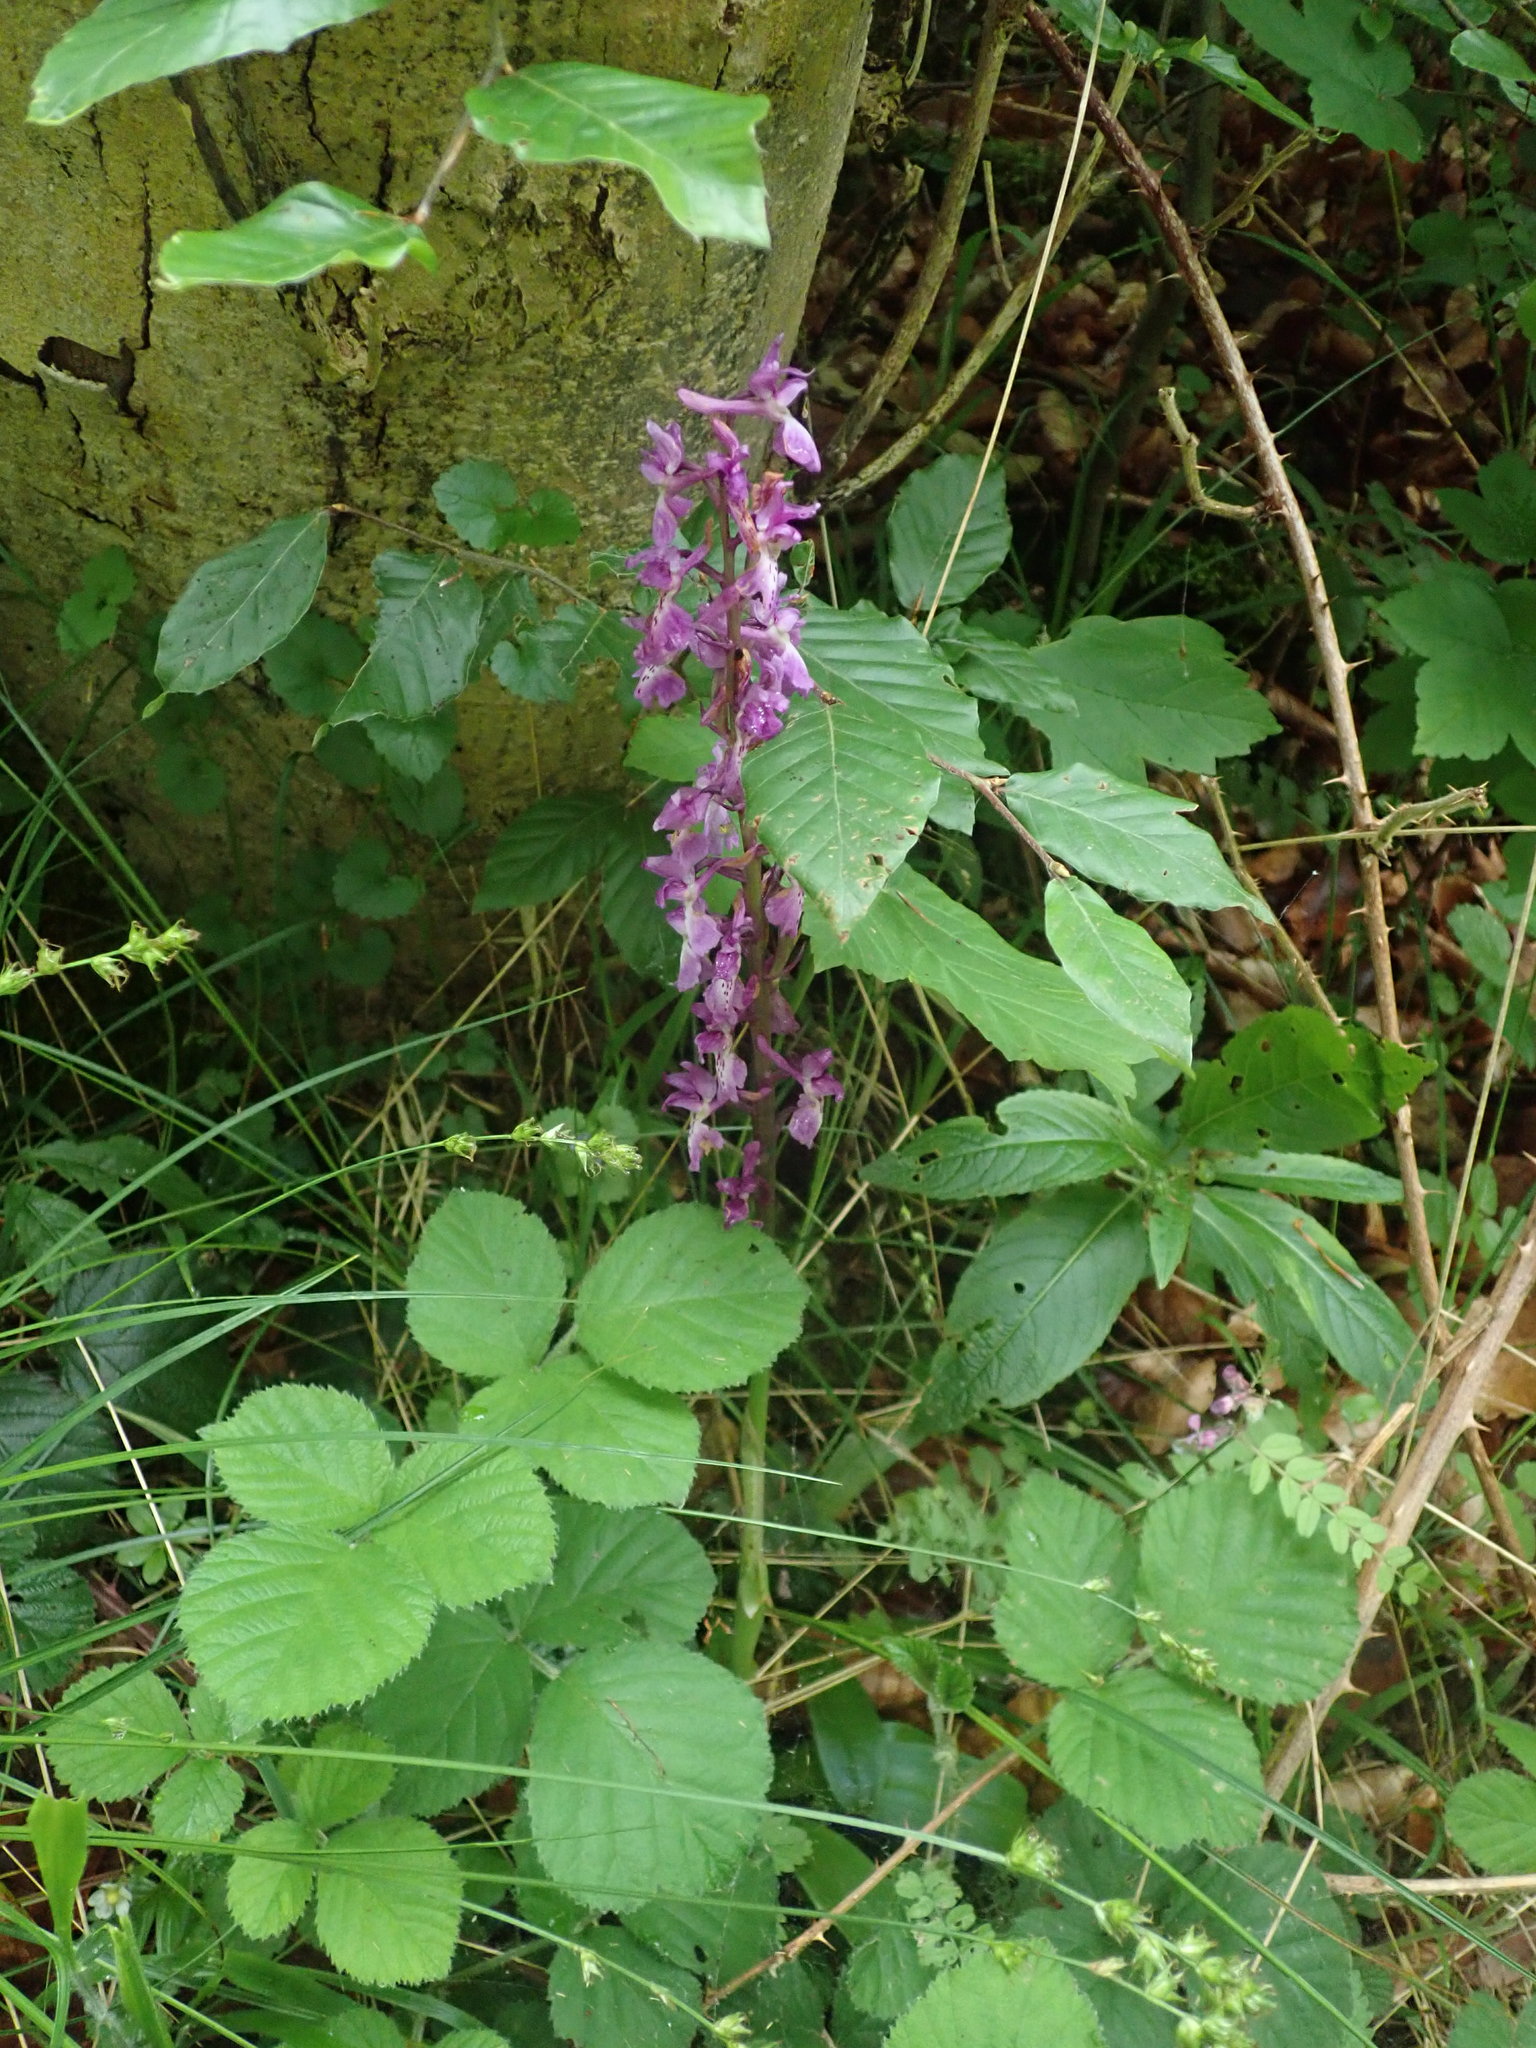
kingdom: Plantae
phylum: Tracheophyta
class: Liliopsida
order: Asparagales
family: Orchidaceae
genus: Orchis
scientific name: Orchis mascula
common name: Early-purple orchid
